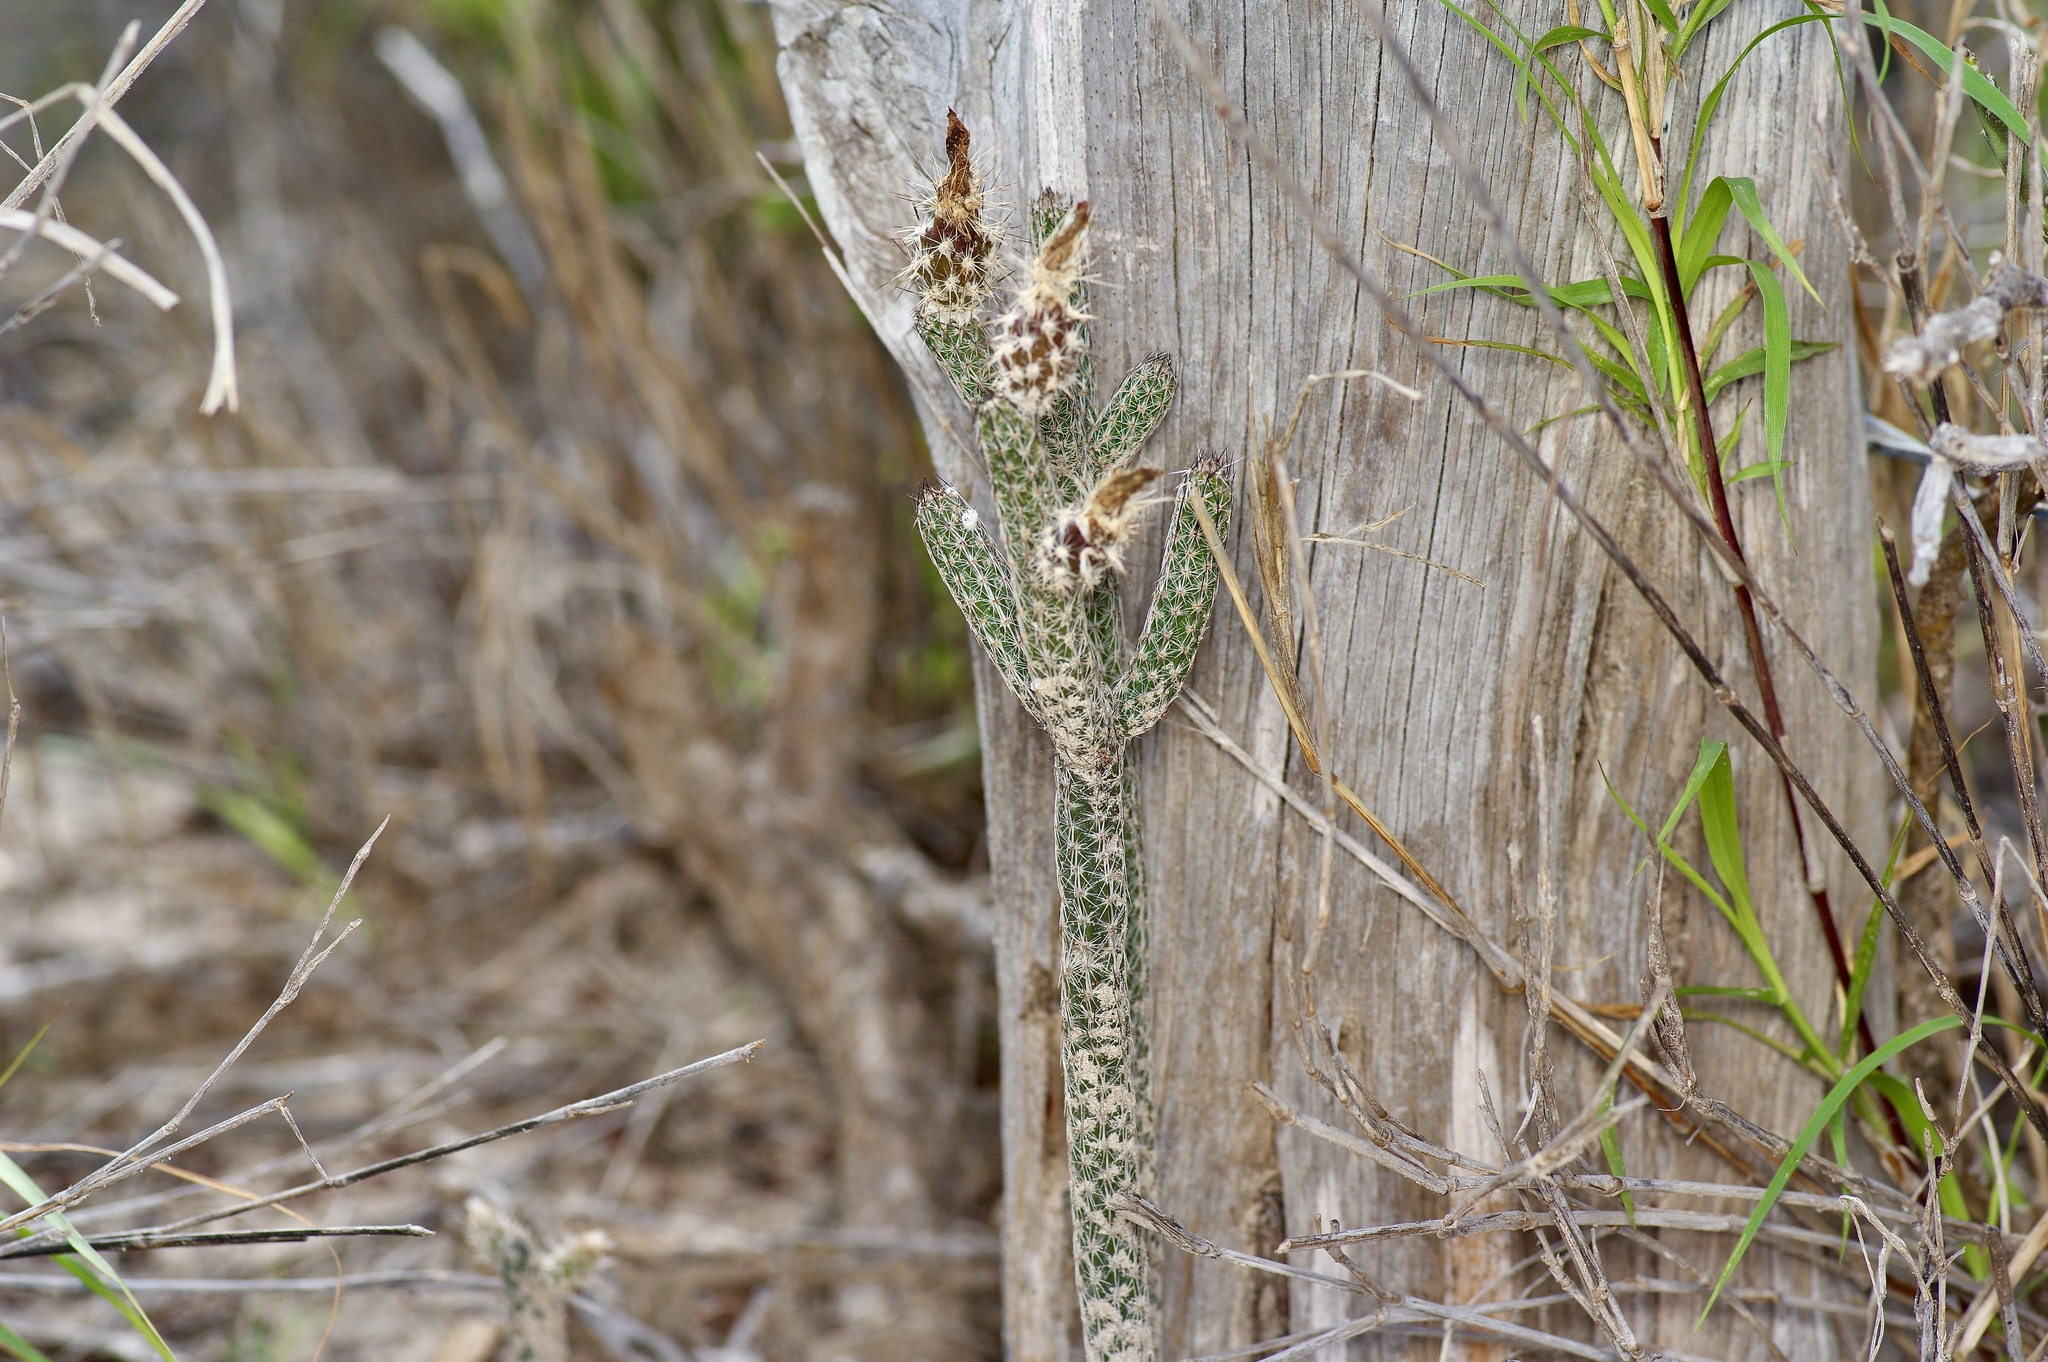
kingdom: Plantae
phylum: Tracheophyta
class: Magnoliopsida
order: Caryophyllales
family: Cactaceae
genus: Echinocereus
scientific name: Echinocereus poselgeri
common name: Dahlia apple cactus
